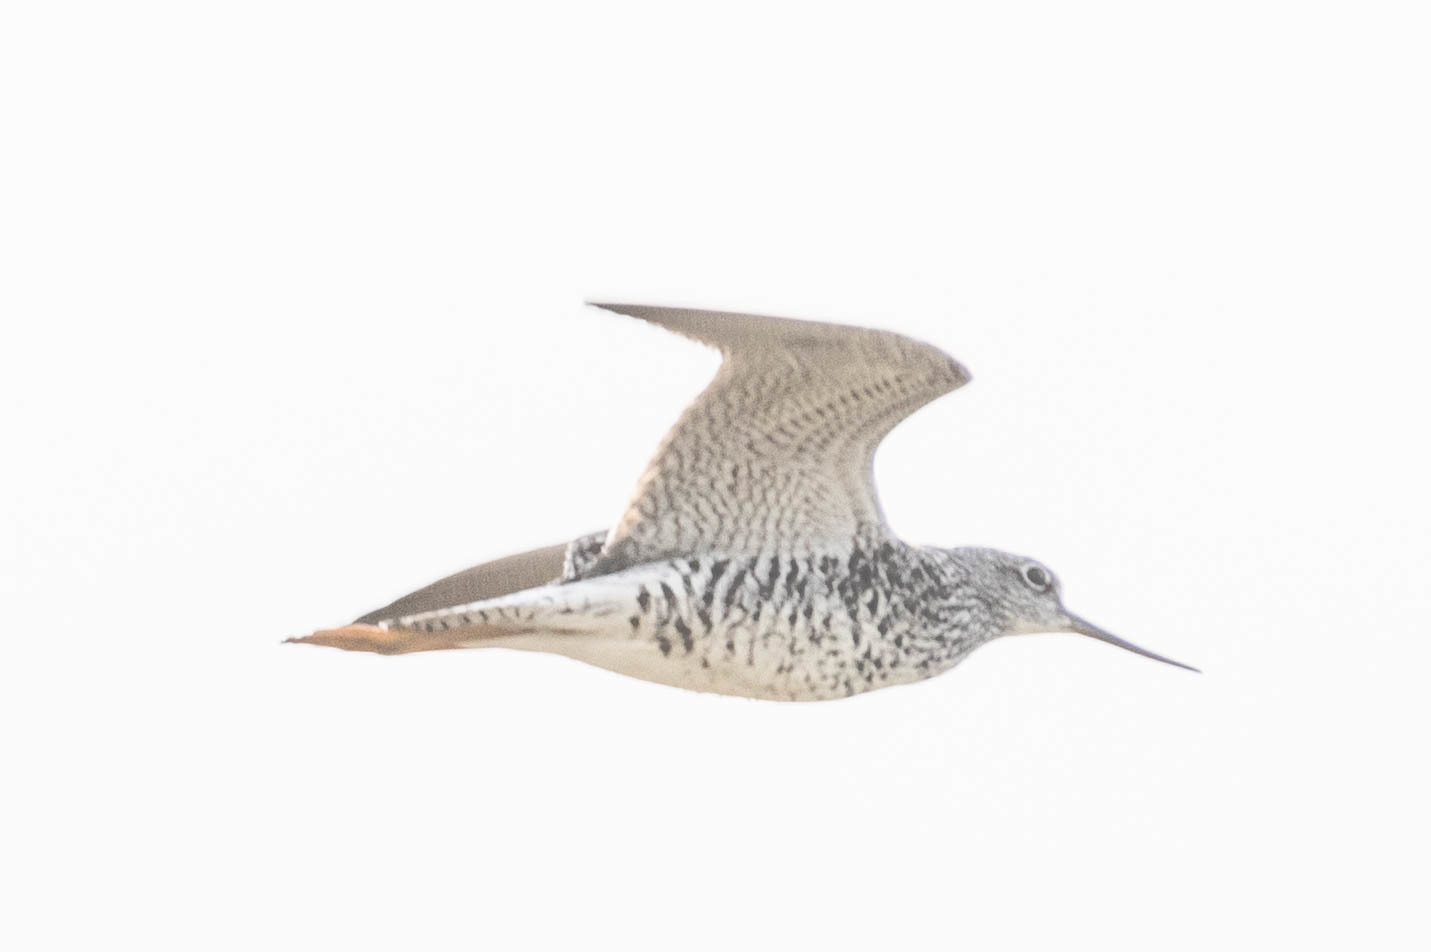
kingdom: Animalia
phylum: Chordata
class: Aves
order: Charadriiformes
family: Scolopacidae
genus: Tringa
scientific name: Tringa melanoleuca
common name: Greater yellowlegs
